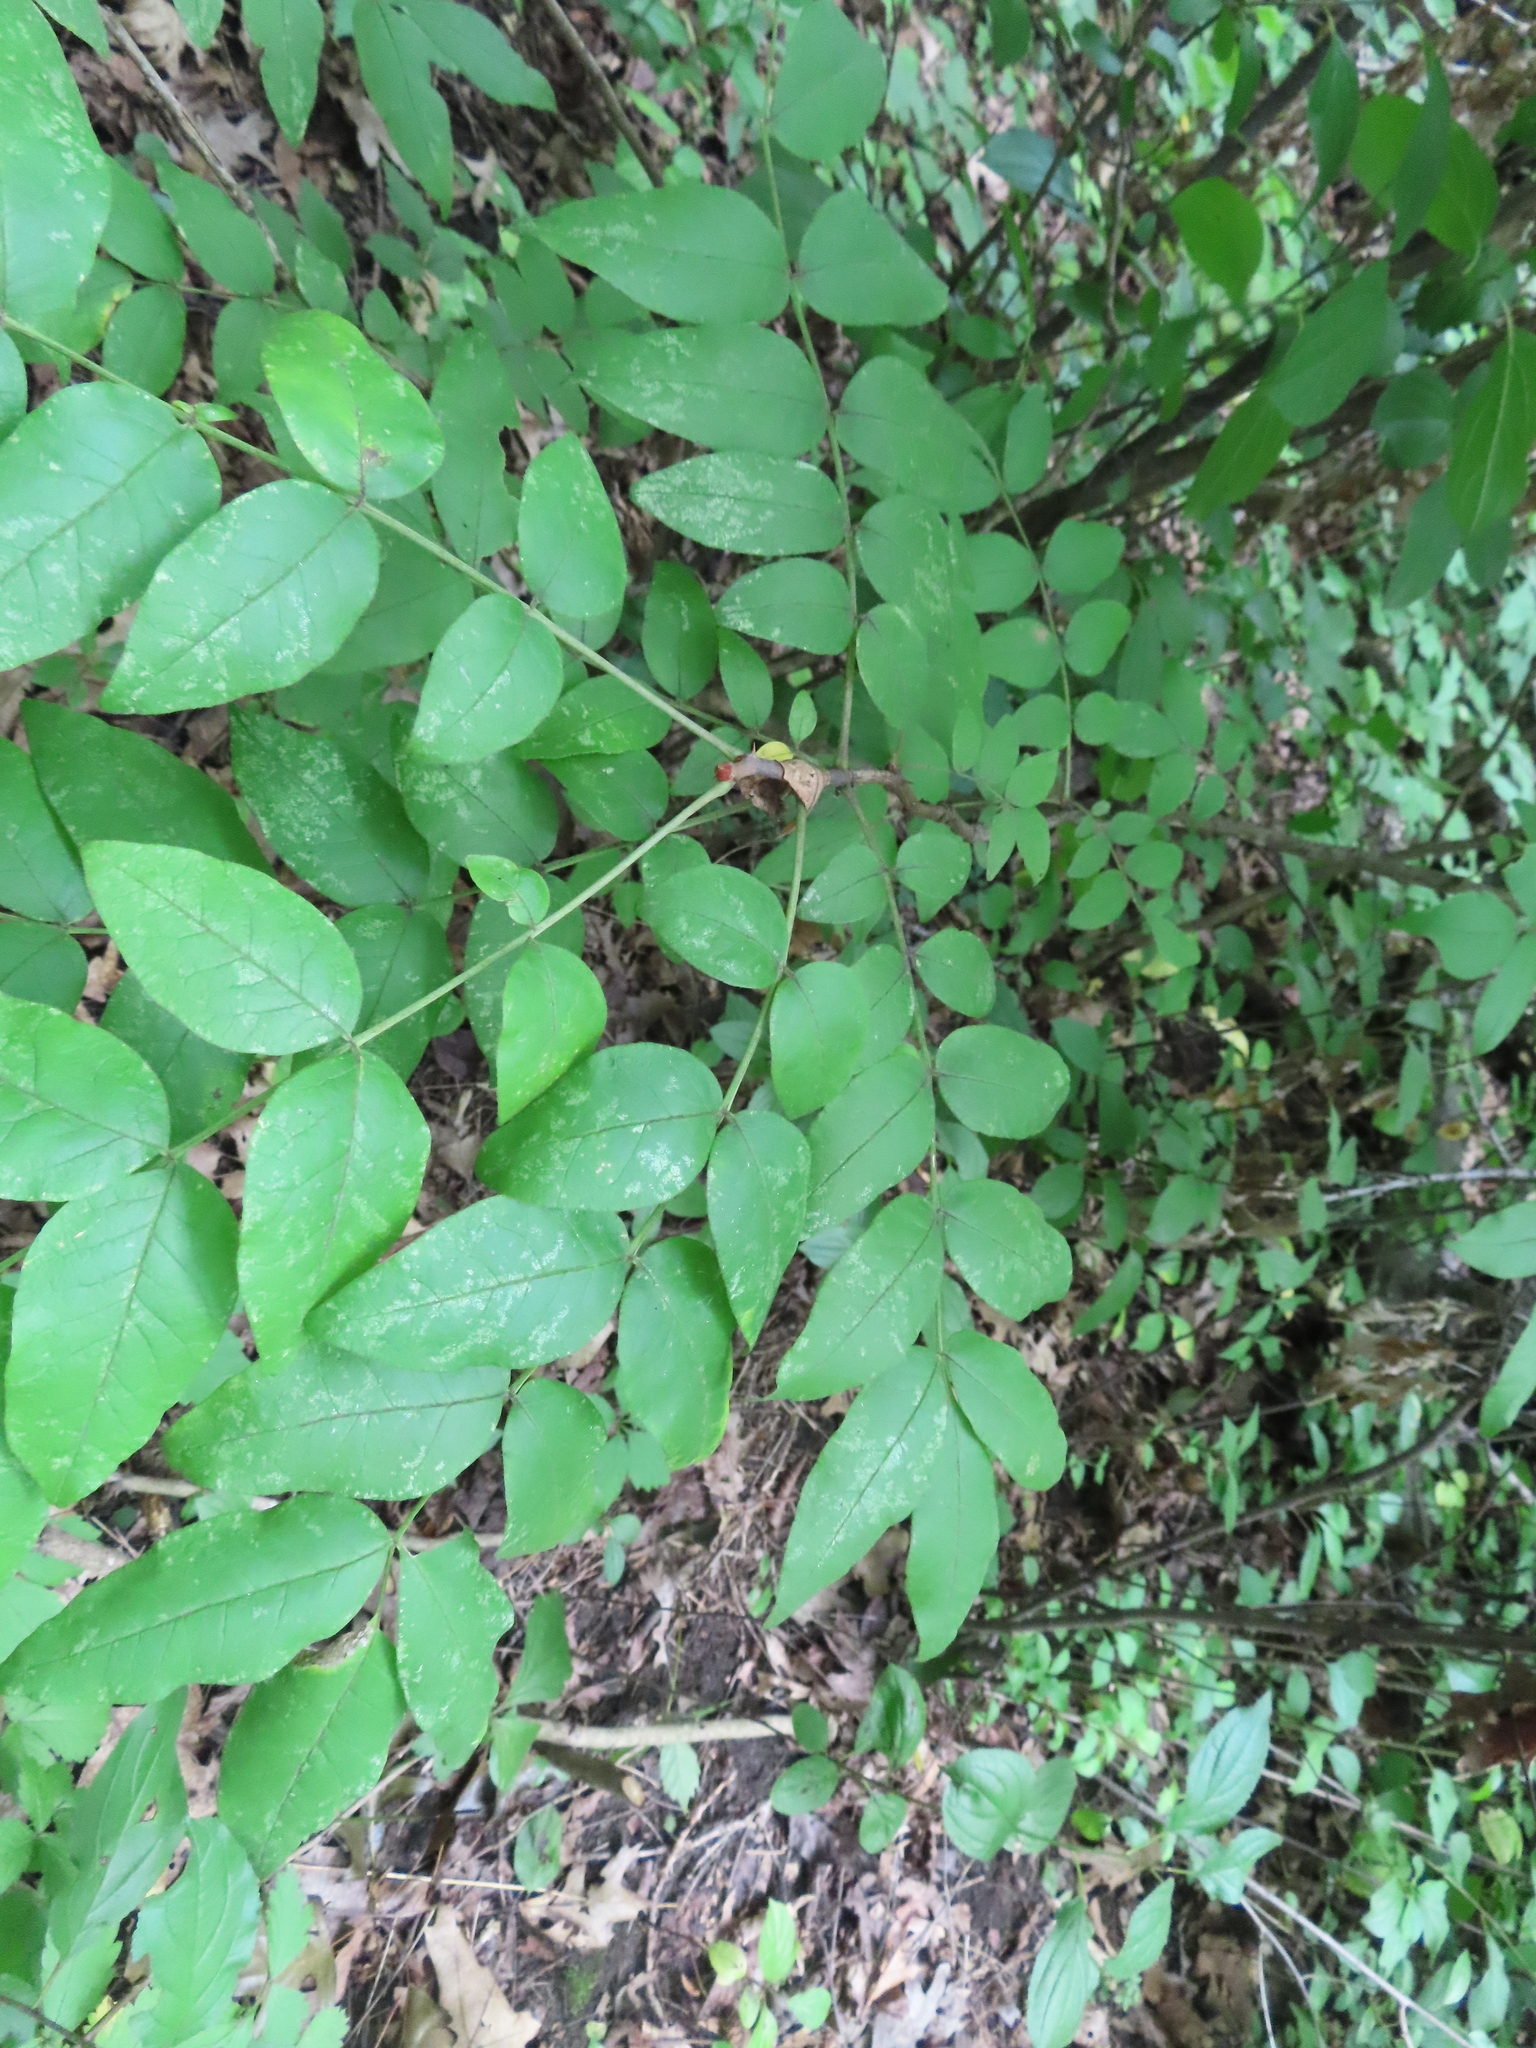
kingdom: Plantae
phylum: Tracheophyta
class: Magnoliopsida
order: Sapindales
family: Rutaceae
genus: Zanthoxylum
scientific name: Zanthoxylum americanum
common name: Northern prickly-ash
